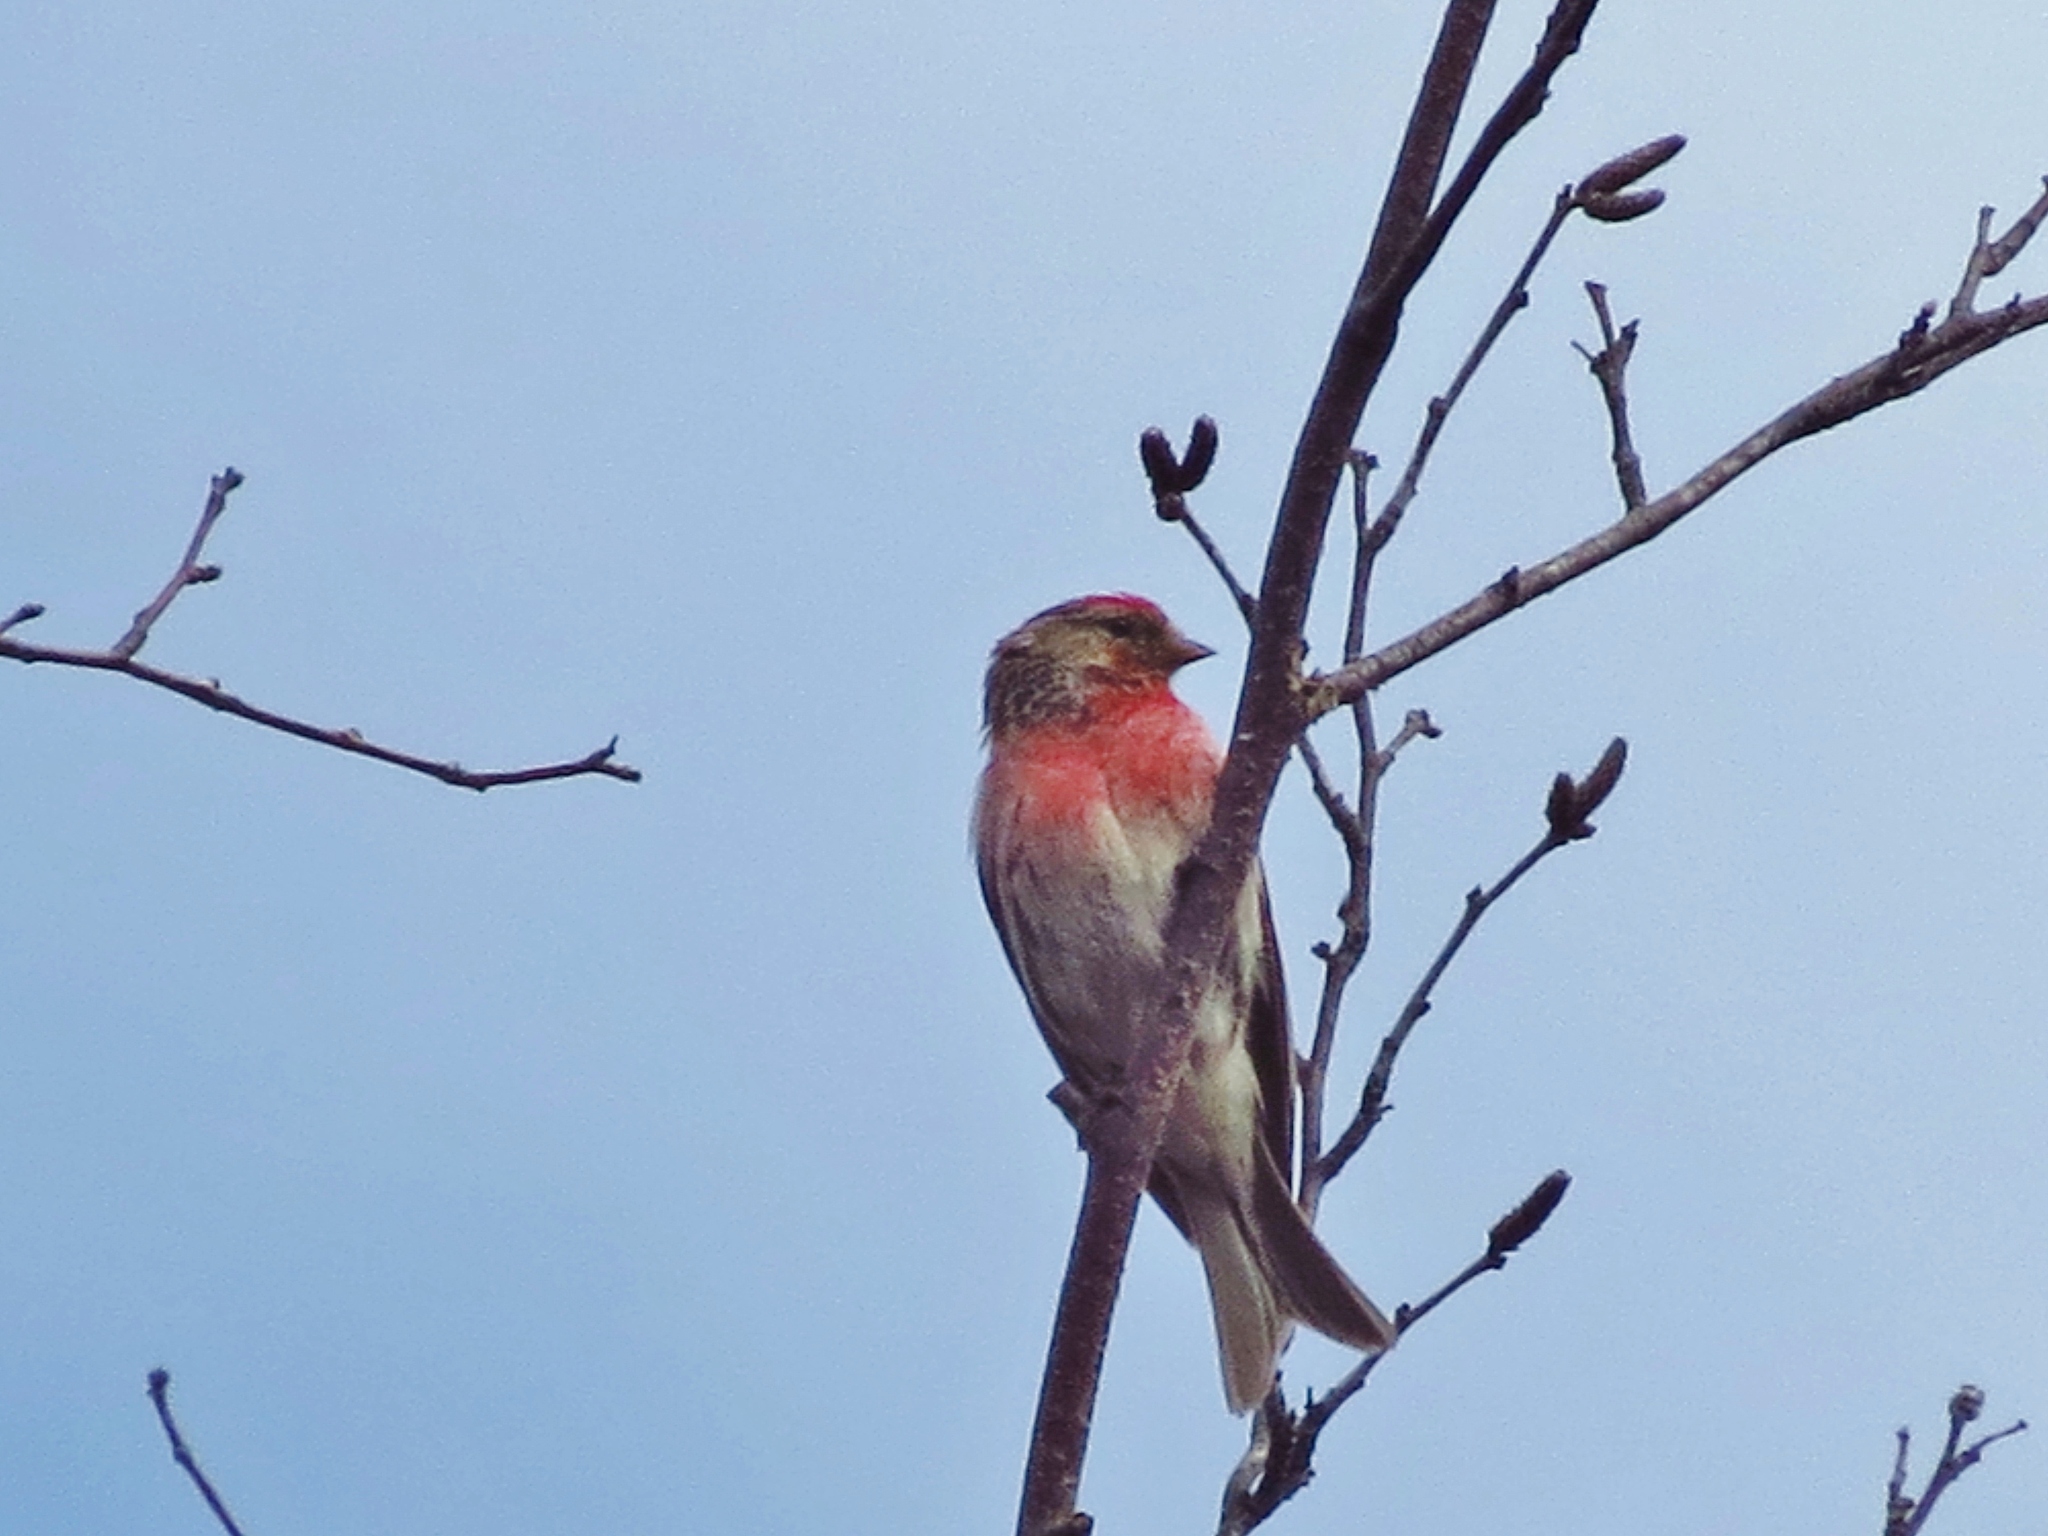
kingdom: Animalia
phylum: Chordata
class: Aves
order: Passeriformes
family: Fringillidae
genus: Acanthis
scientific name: Acanthis flammea
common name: Common redpoll
